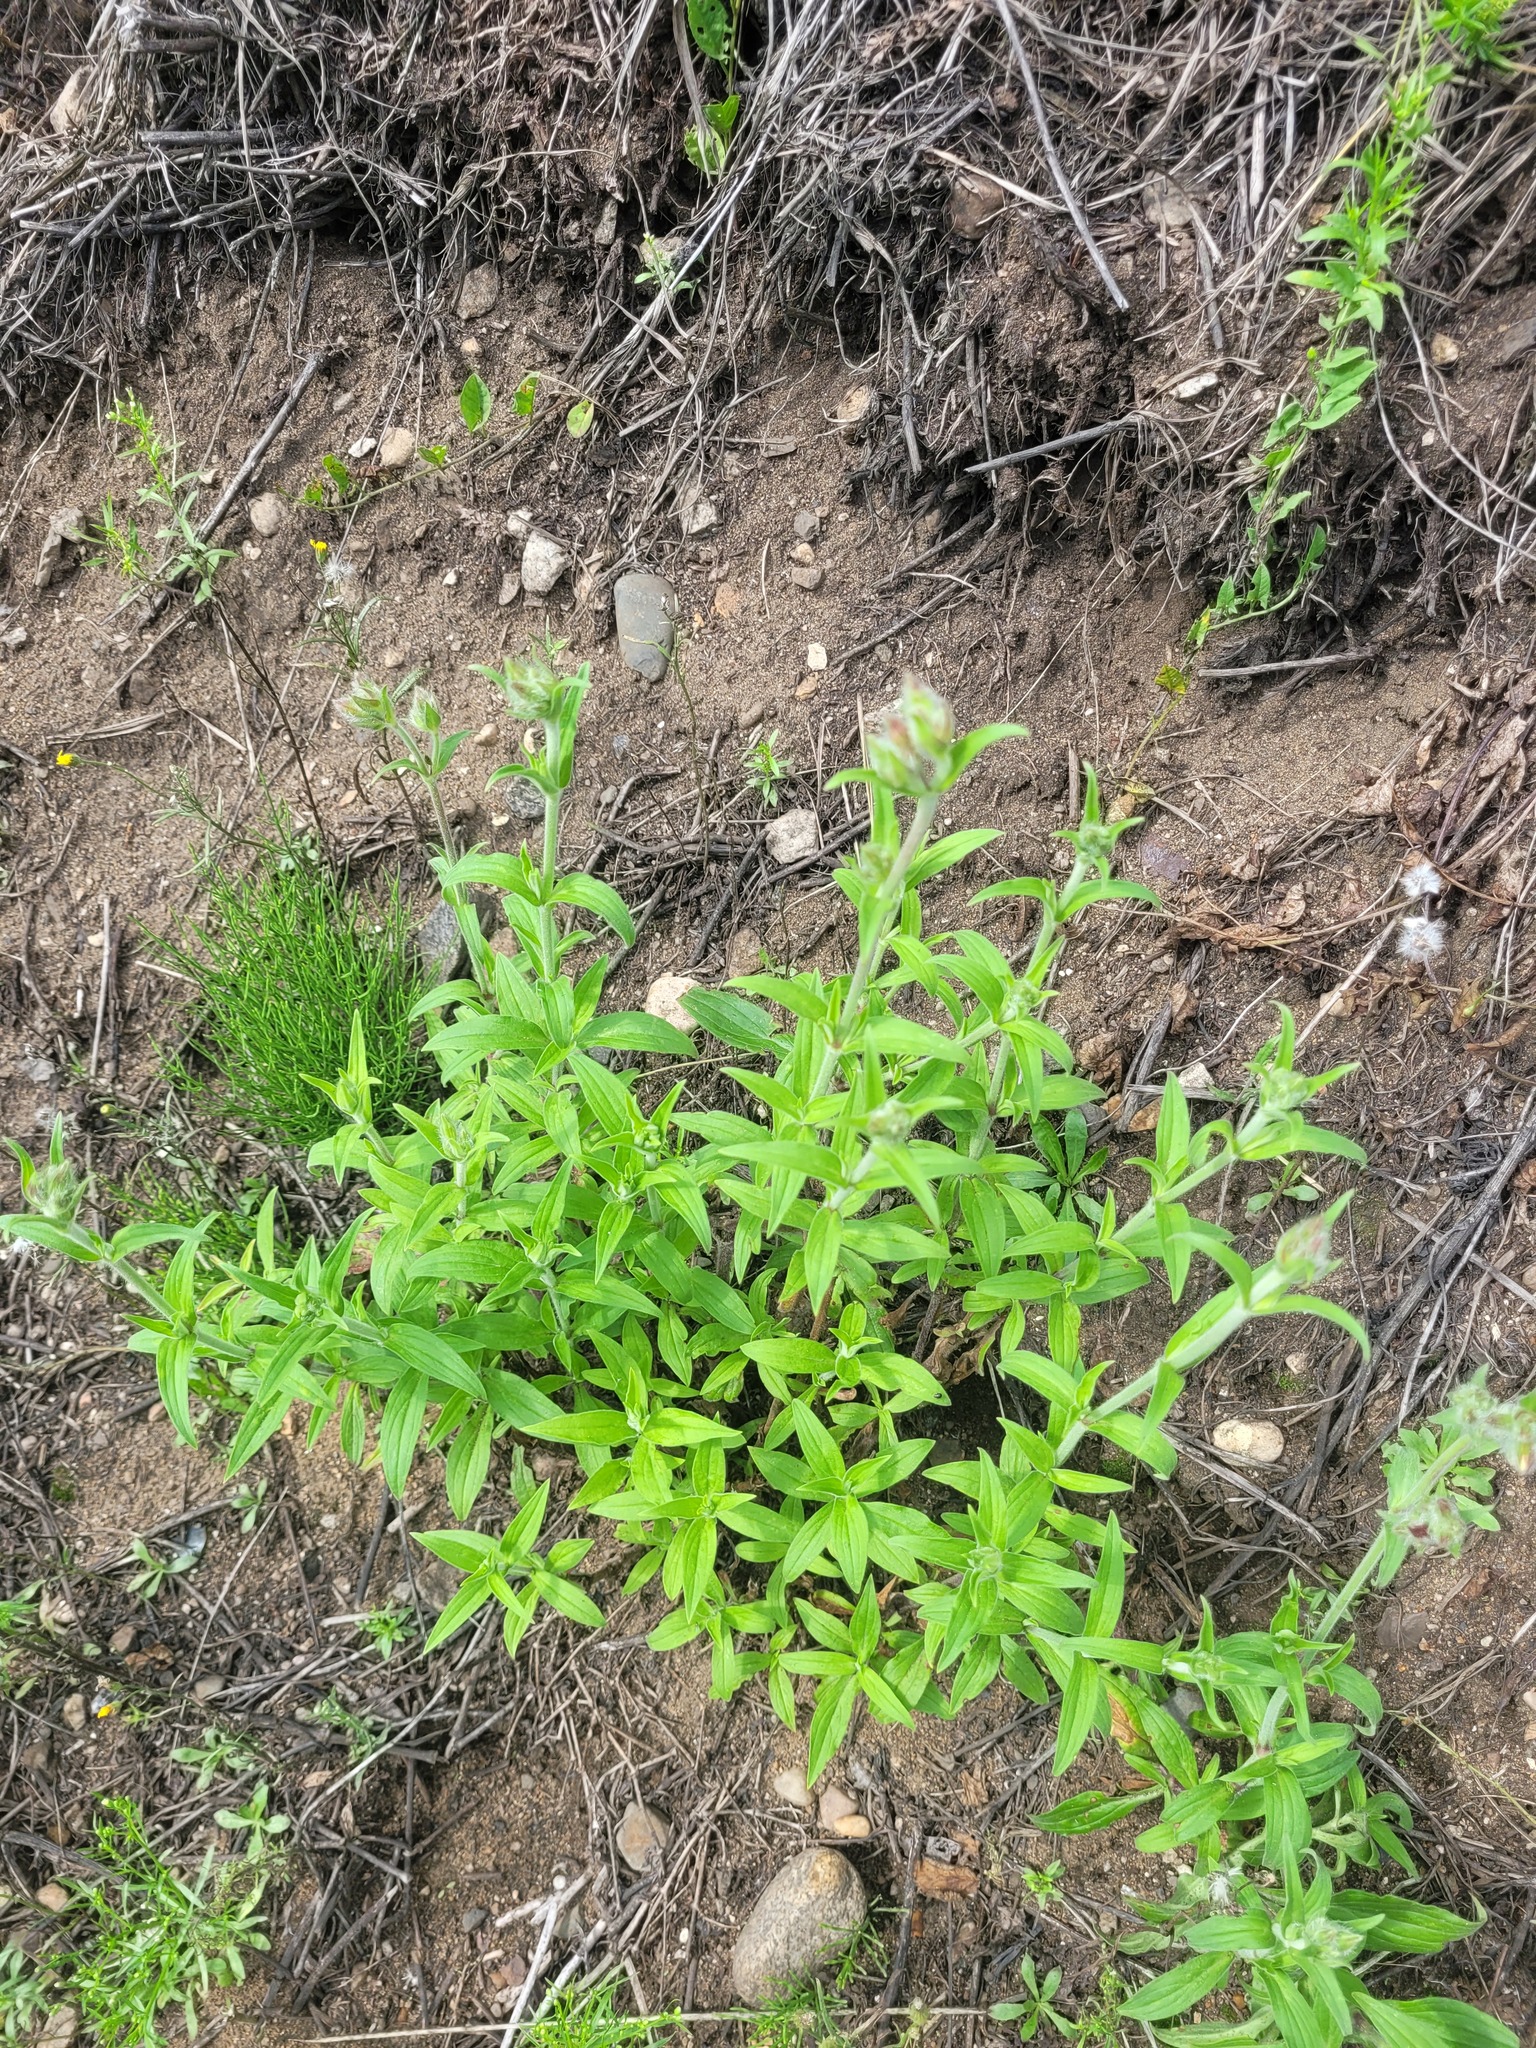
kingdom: Plantae
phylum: Tracheophyta
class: Magnoliopsida
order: Caryophyllales
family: Caryophyllaceae
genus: Silene
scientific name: Silene latifolia
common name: White campion
